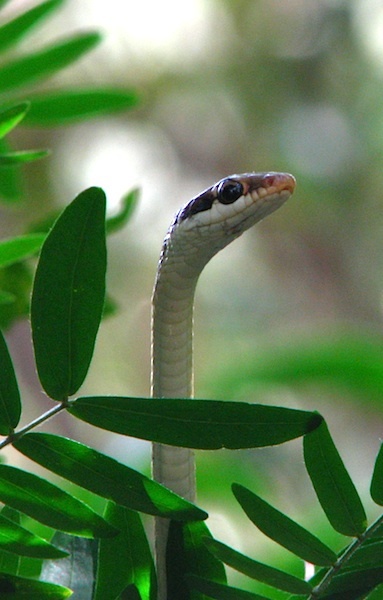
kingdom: Animalia
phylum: Chordata
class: Squamata
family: Colubridae
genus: Dendrelaphis
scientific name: Dendrelaphis tristis
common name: Daudin's bronzeback
